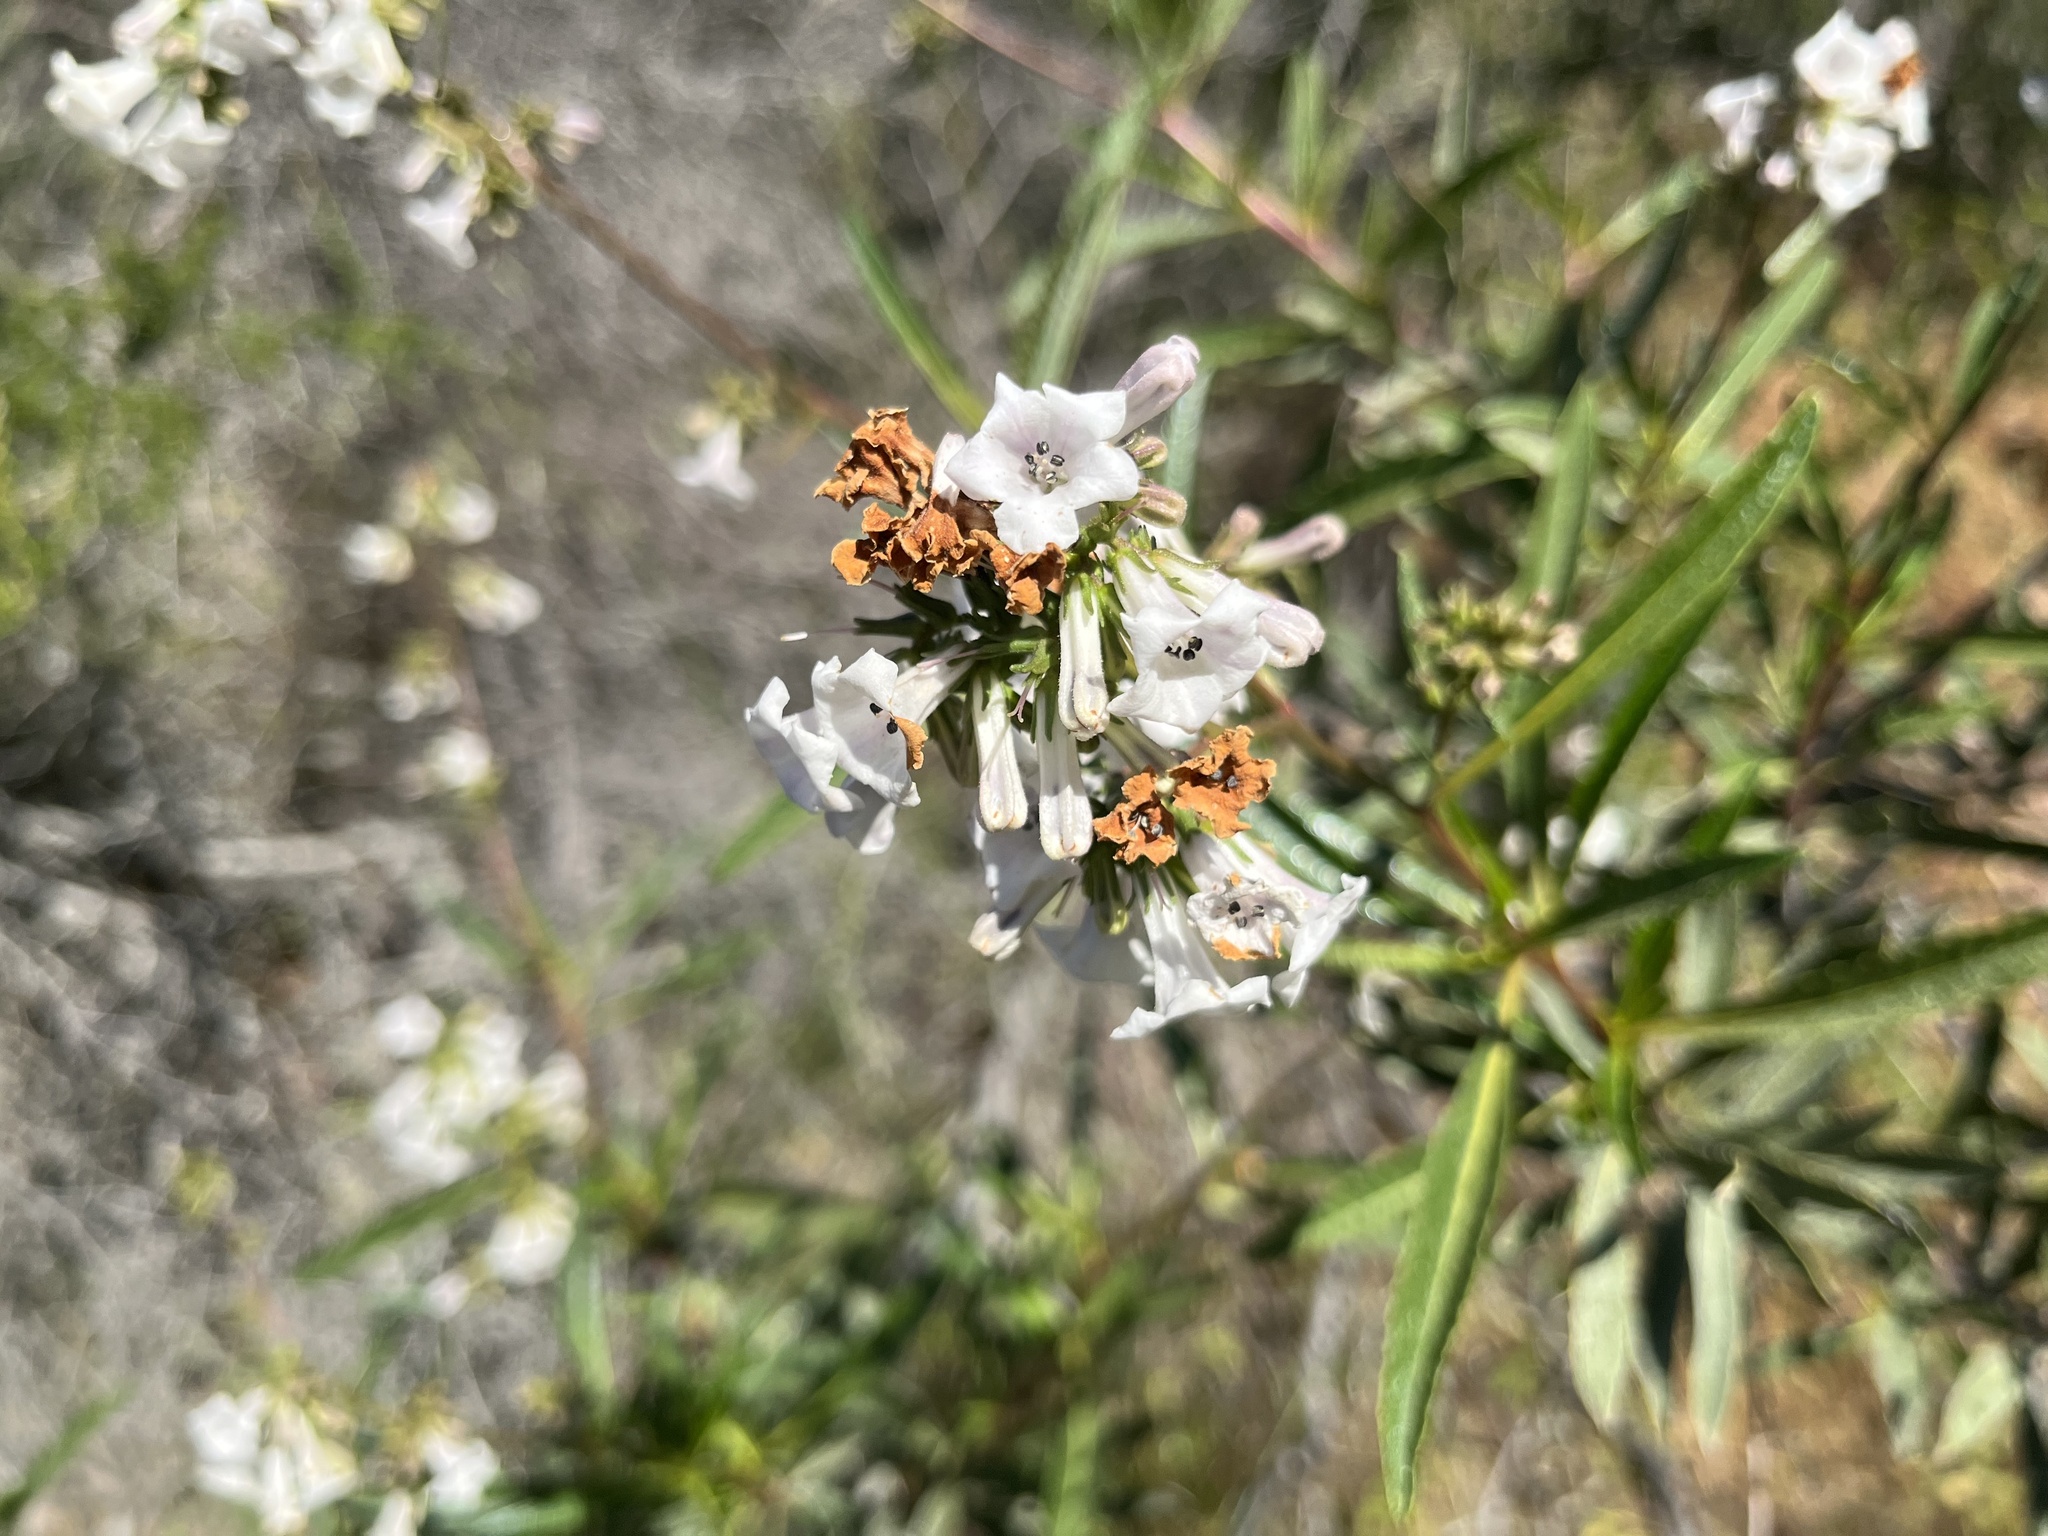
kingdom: Plantae
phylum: Tracheophyta
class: Magnoliopsida
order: Boraginales
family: Namaceae
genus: Eriodictyon
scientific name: Eriodictyon californicum
